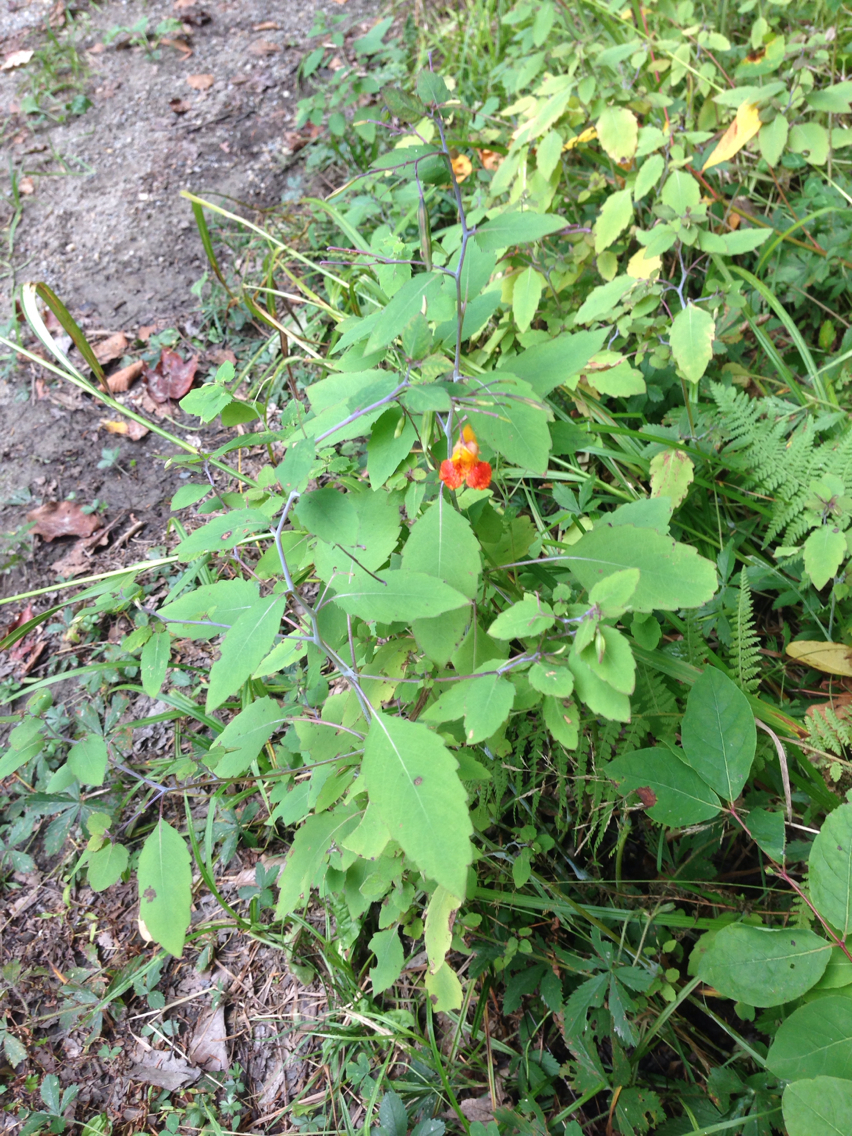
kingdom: Plantae
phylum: Tracheophyta
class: Magnoliopsida
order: Ericales
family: Balsaminaceae
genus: Impatiens
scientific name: Impatiens capensis
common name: Orange balsam
